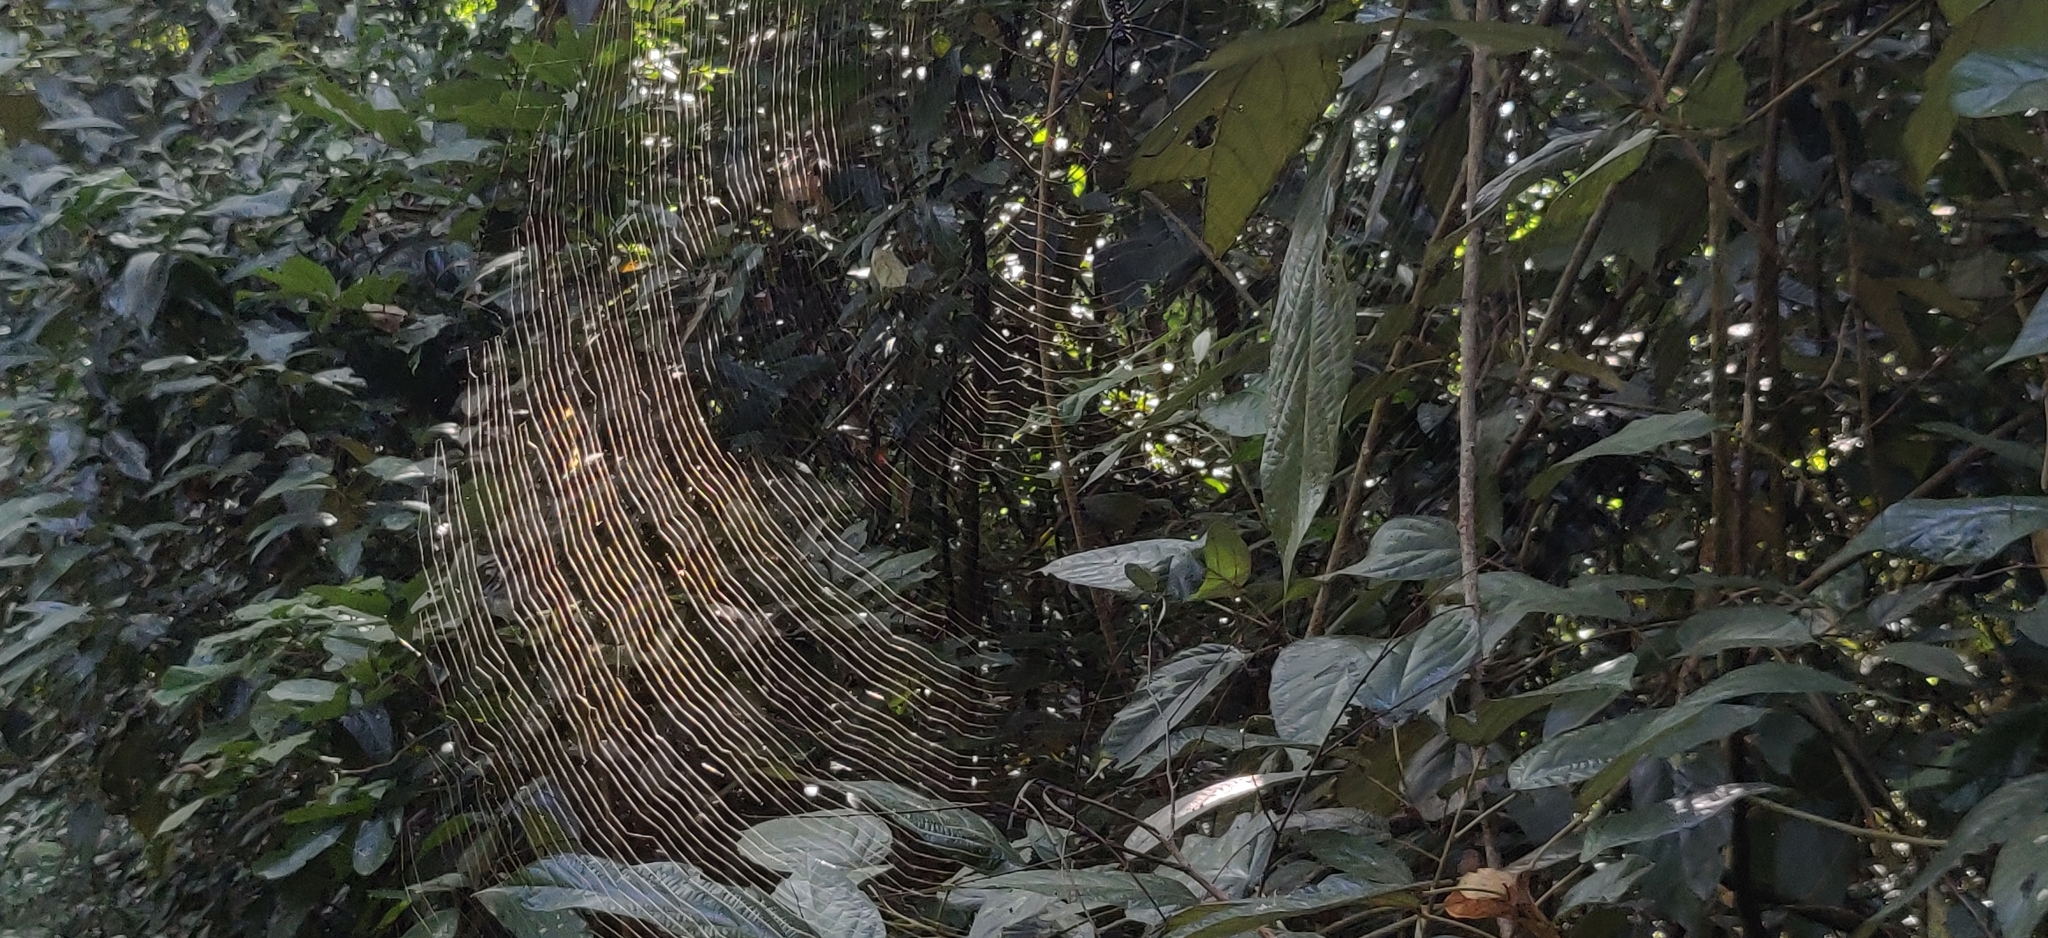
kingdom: Animalia
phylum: Arthropoda
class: Arachnida
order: Araneae
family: Araneidae
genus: Nephila
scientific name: Nephila pilipes
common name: Giant golden orb weaver
